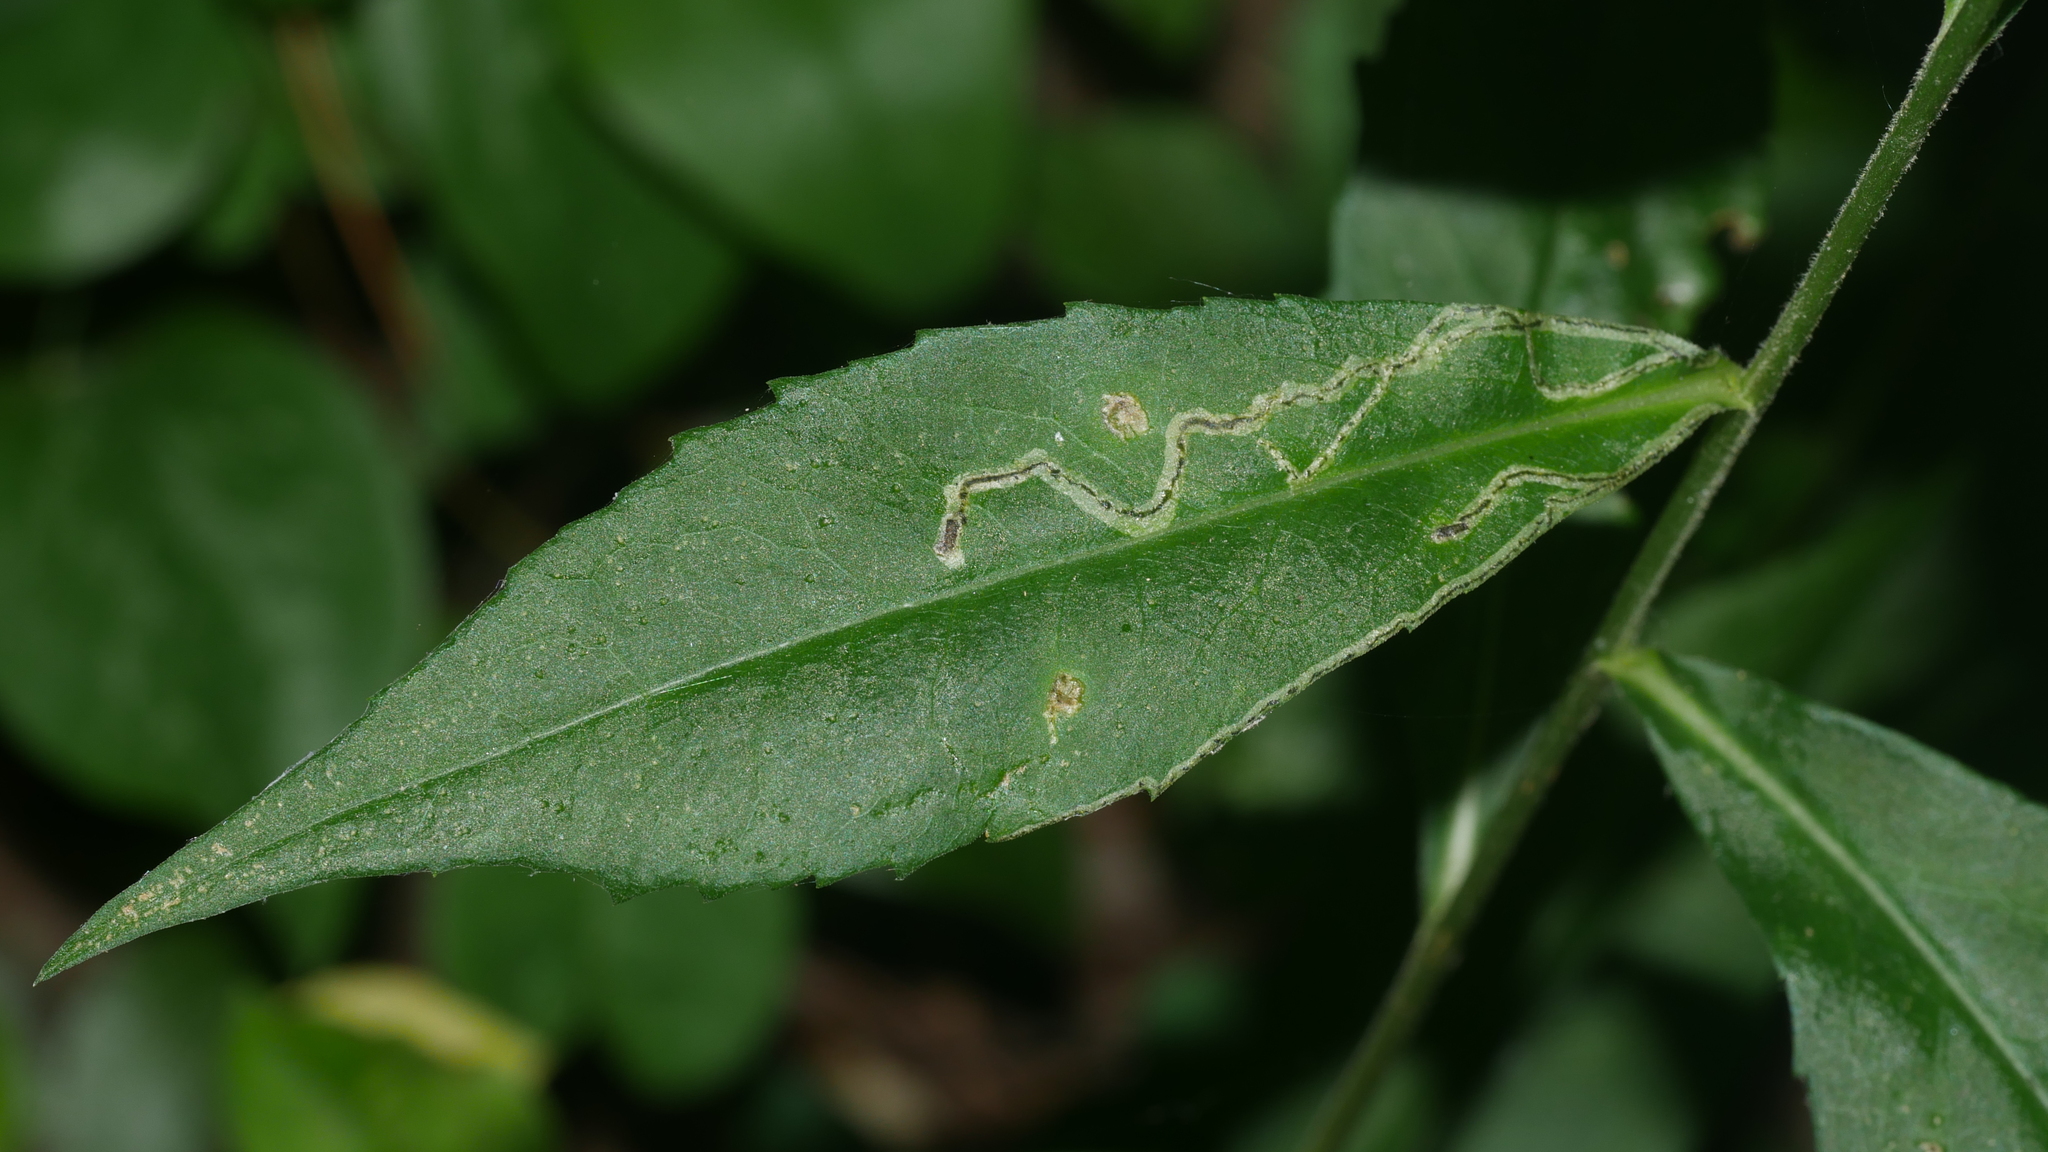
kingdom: Animalia
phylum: Arthropoda
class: Insecta
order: Diptera
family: Agromyzidae
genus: Liriomyza
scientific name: Liriomyza eupatorii
